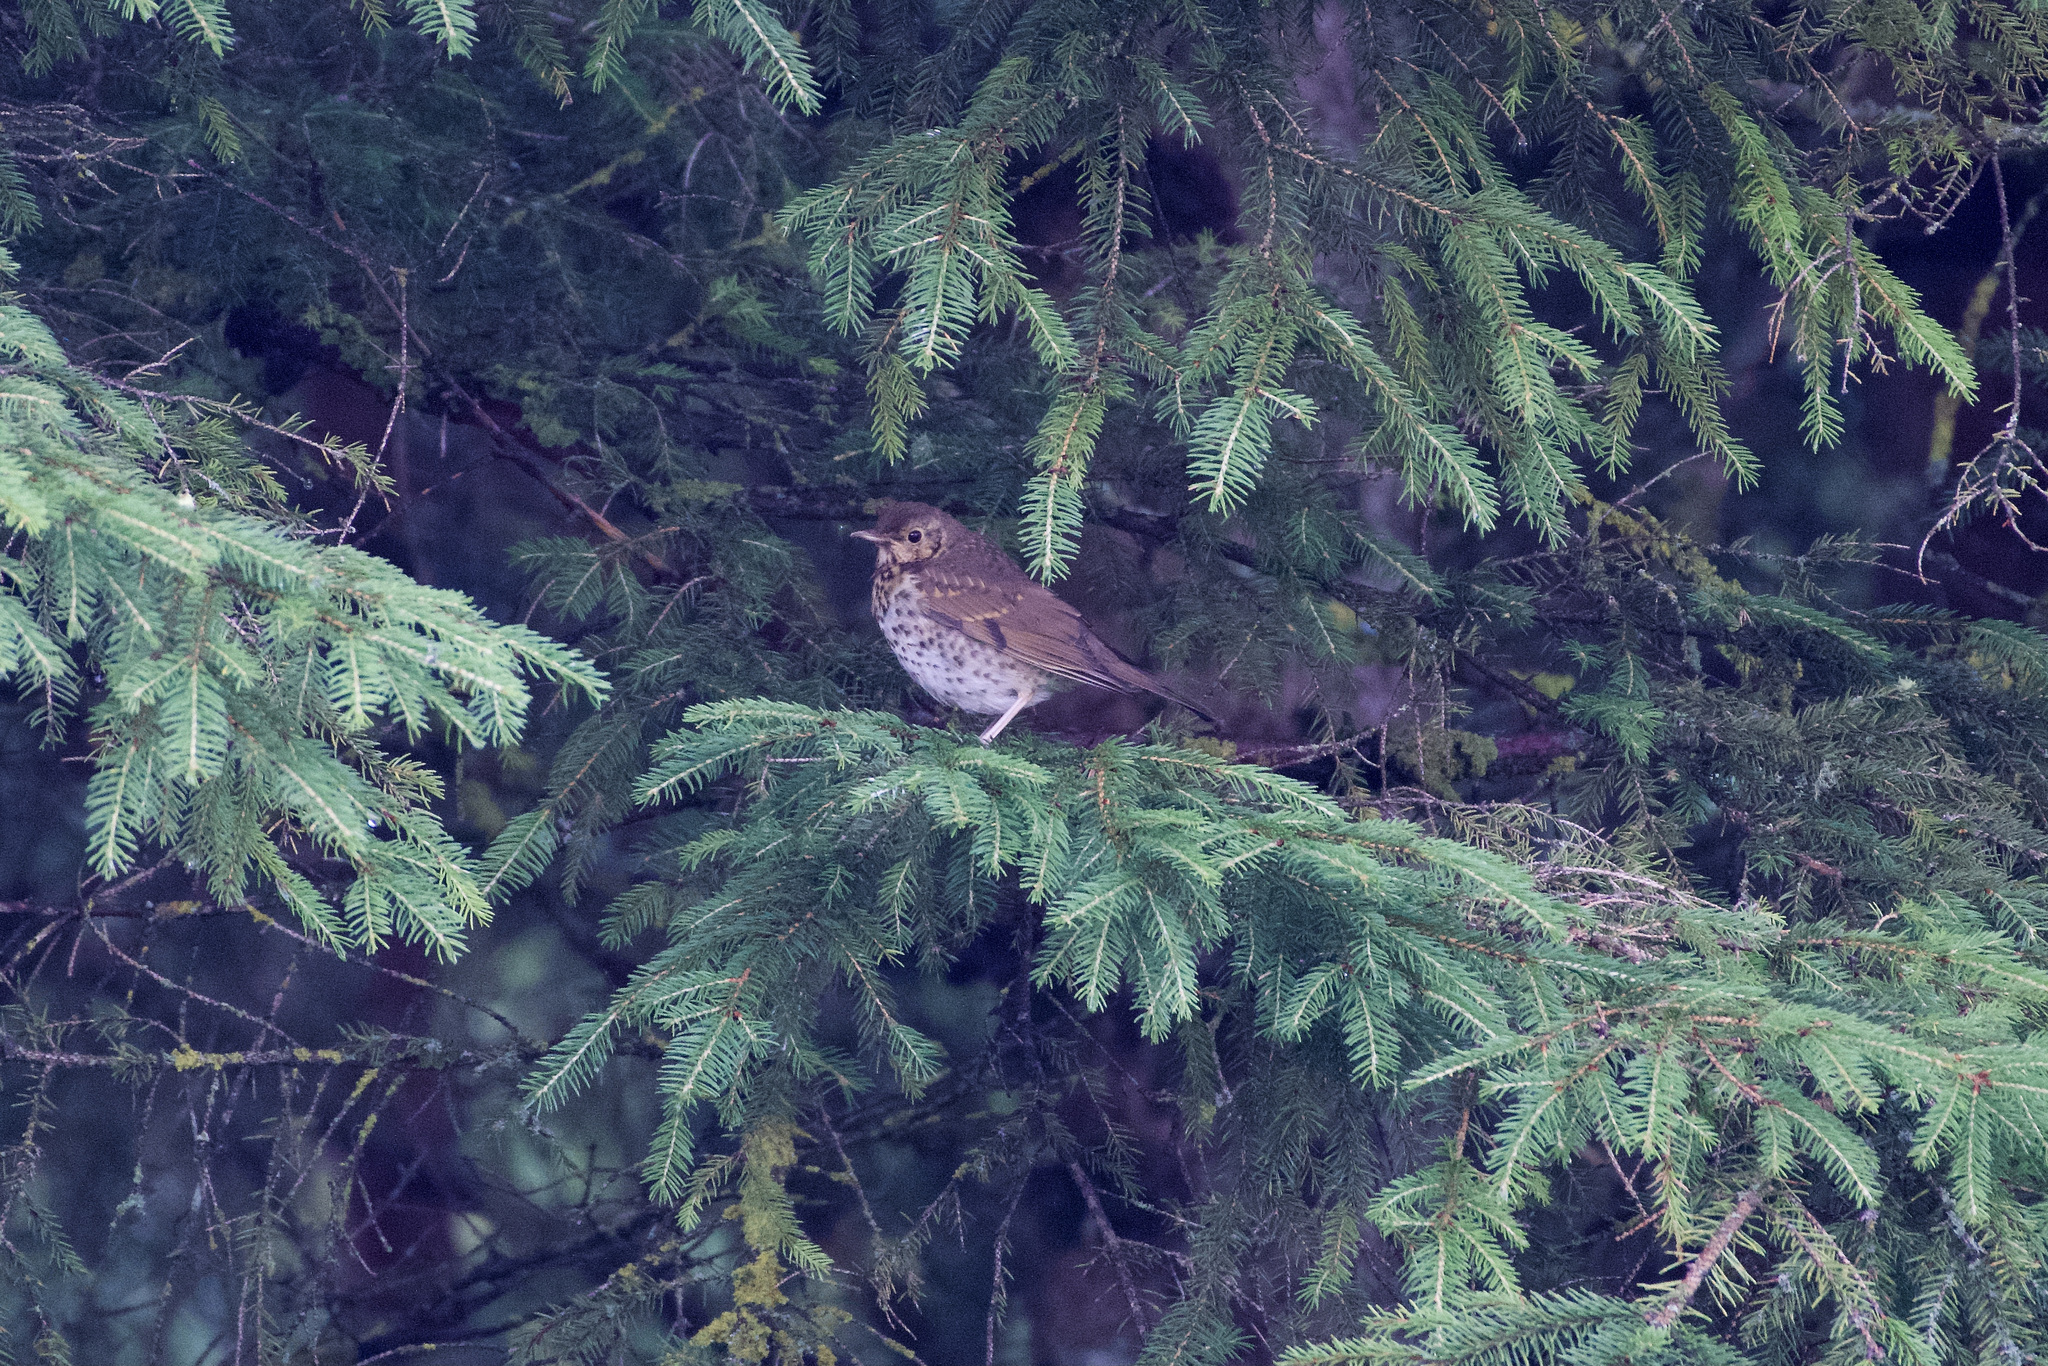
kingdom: Animalia
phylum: Chordata
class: Aves
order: Passeriformes
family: Turdidae
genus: Turdus
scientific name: Turdus philomelos
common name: Song thrush
